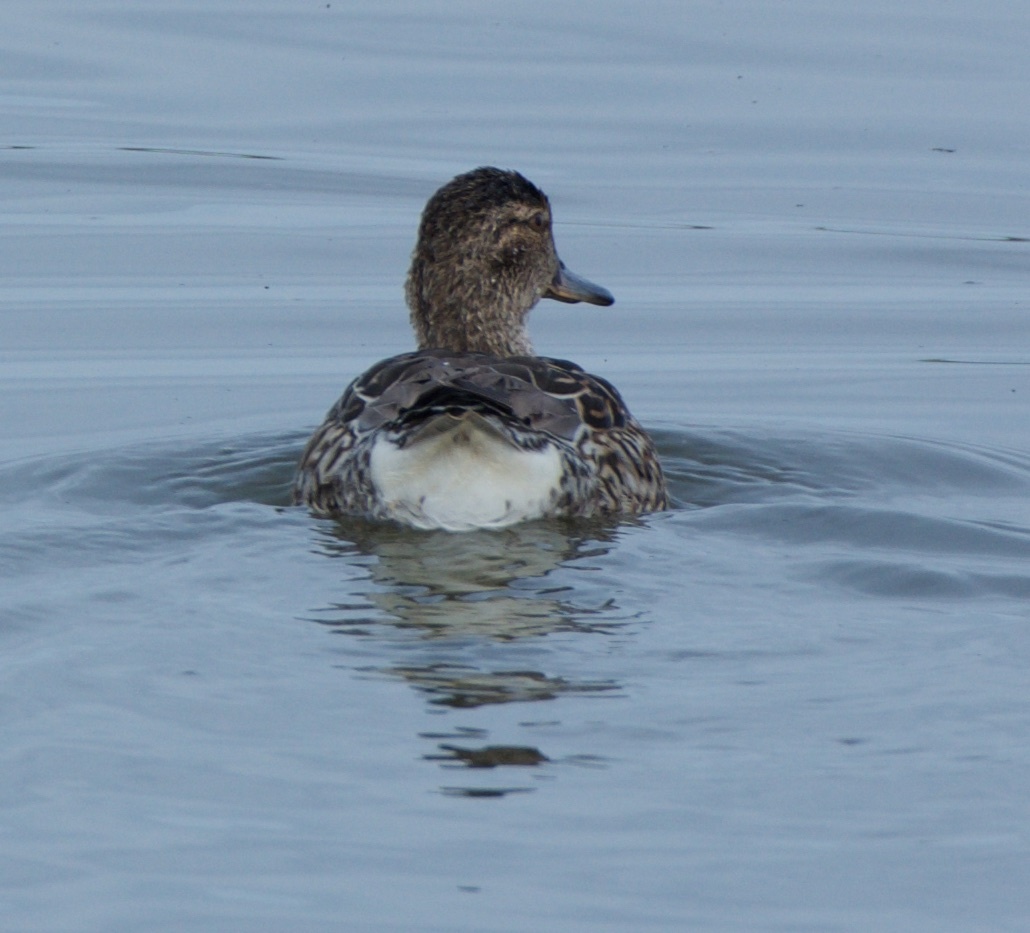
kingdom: Animalia
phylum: Chordata
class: Aves
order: Anseriformes
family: Anatidae
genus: Anas
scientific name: Anas crecca
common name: Eurasian teal
